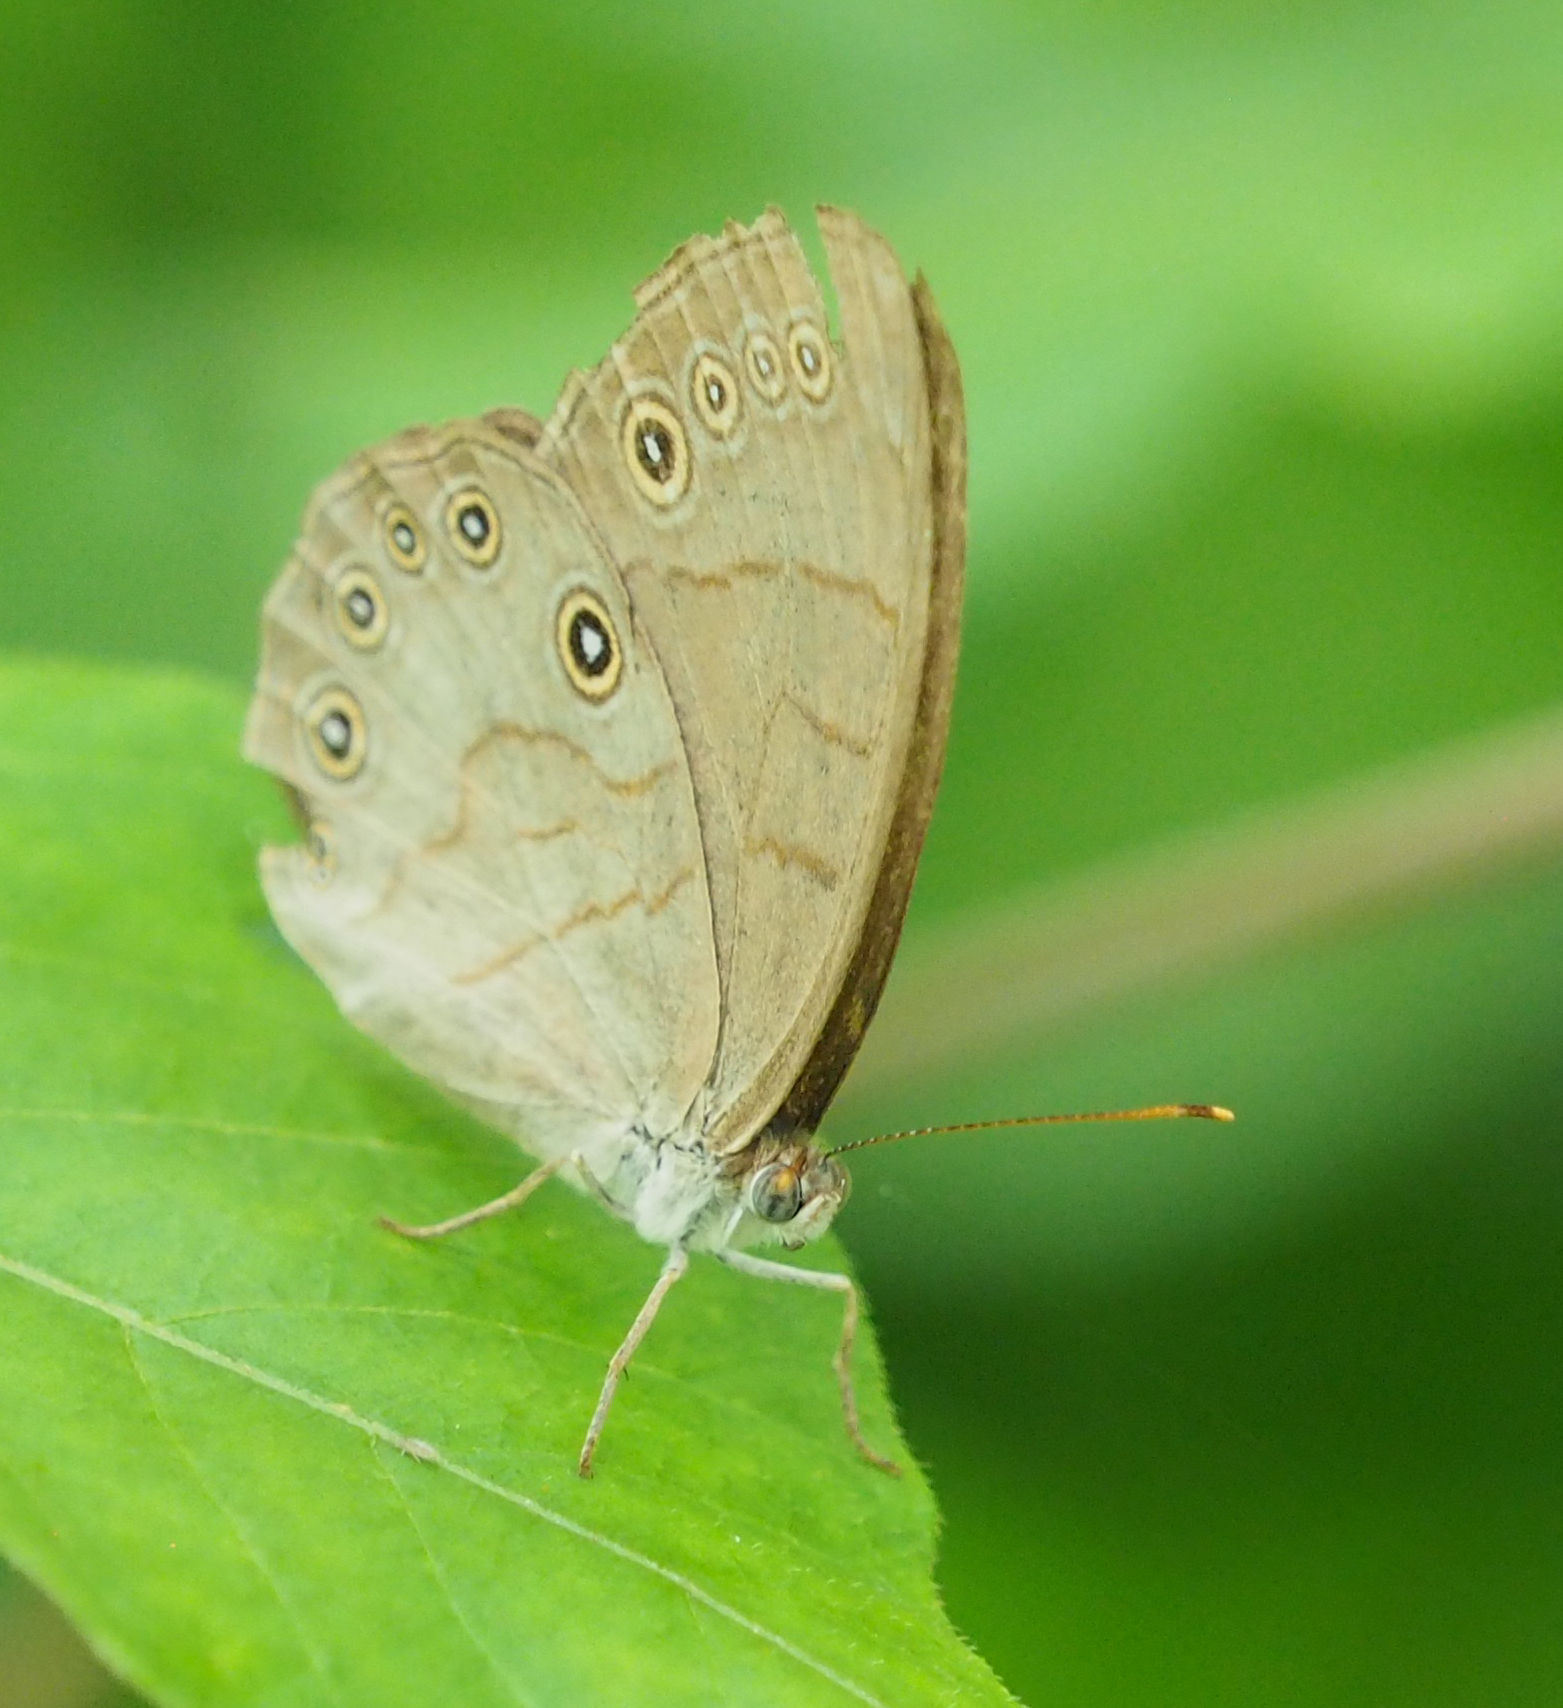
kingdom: Animalia
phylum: Arthropoda
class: Insecta
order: Lepidoptera
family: Nymphalidae
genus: Lethe
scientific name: Lethe eurydice
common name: Eyed brown
